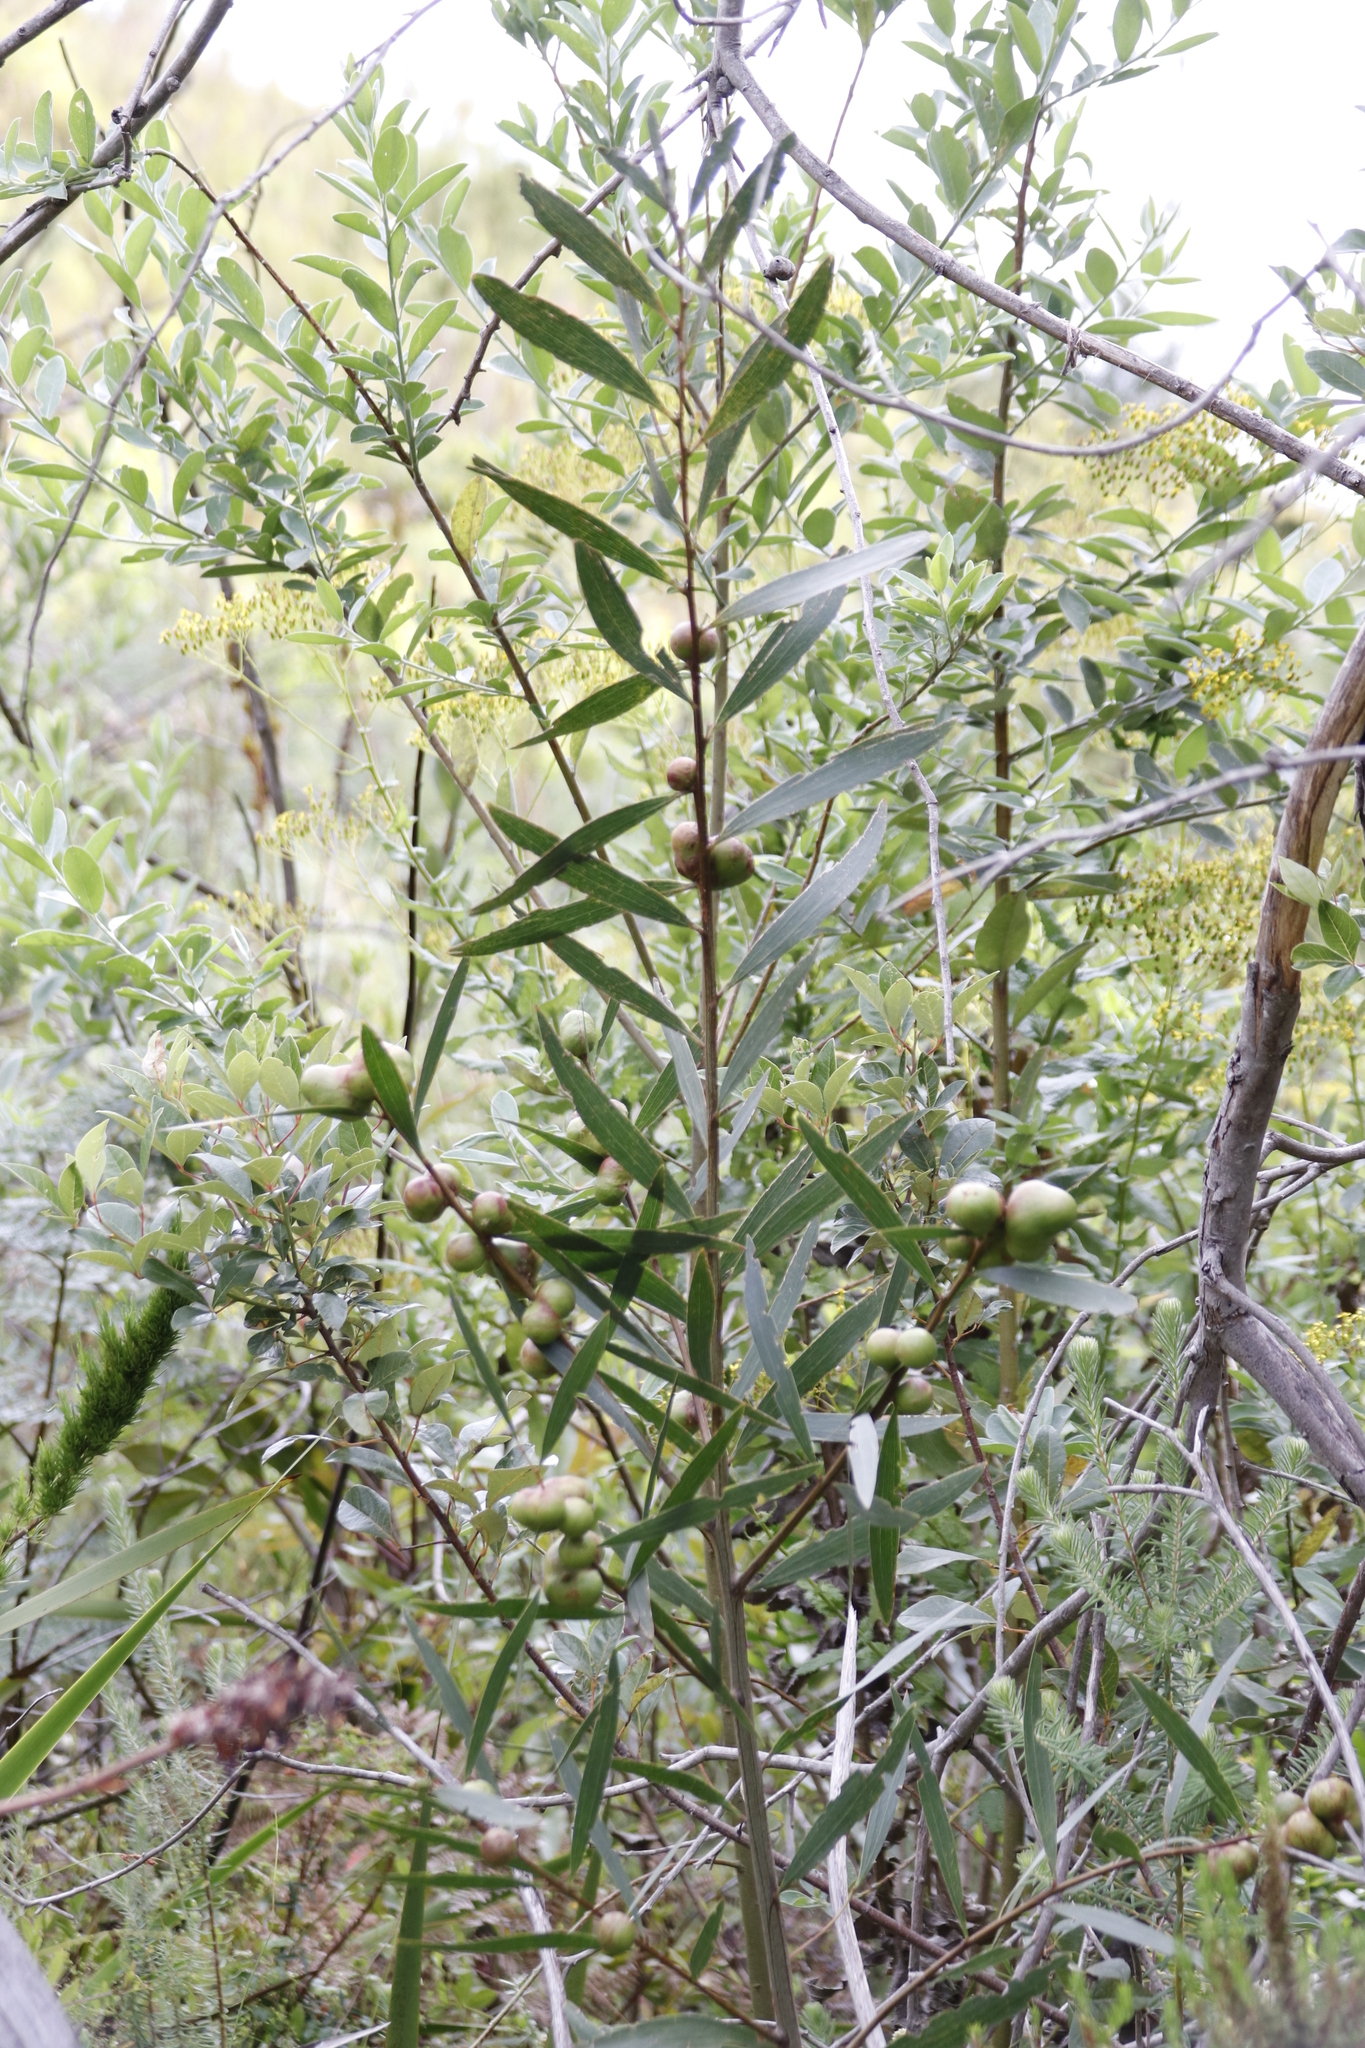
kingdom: Plantae
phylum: Tracheophyta
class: Magnoliopsida
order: Fabales
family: Fabaceae
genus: Acacia
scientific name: Acacia longifolia
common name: Sydney golden wattle
